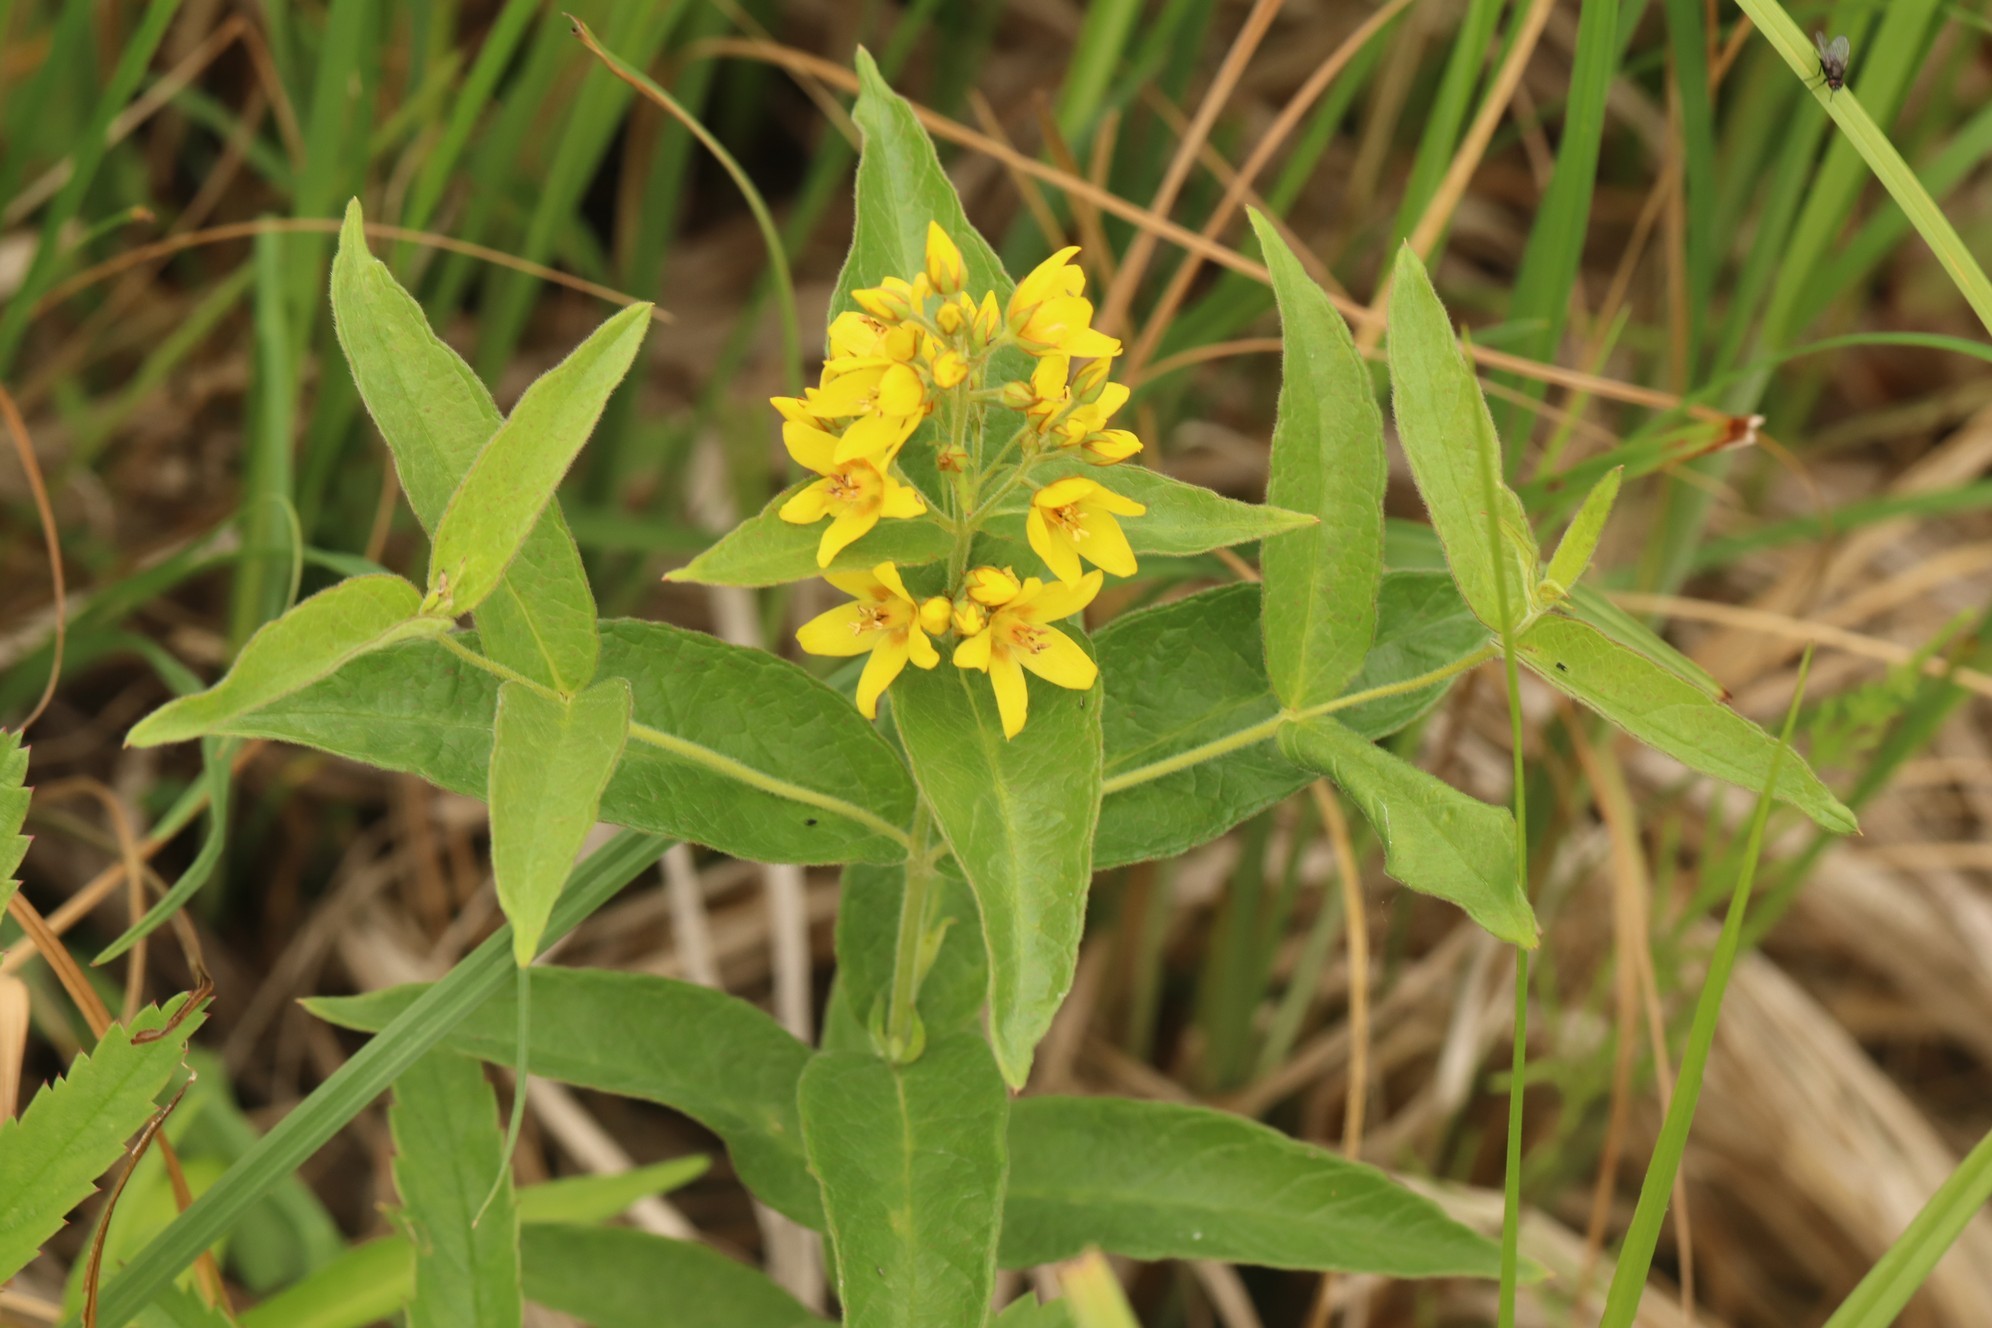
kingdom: Plantae
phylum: Tracheophyta
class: Magnoliopsida
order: Ericales
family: Primulaceae
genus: Lysimachia
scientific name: Lysimachia vulgaris
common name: Yellow loosestrife
